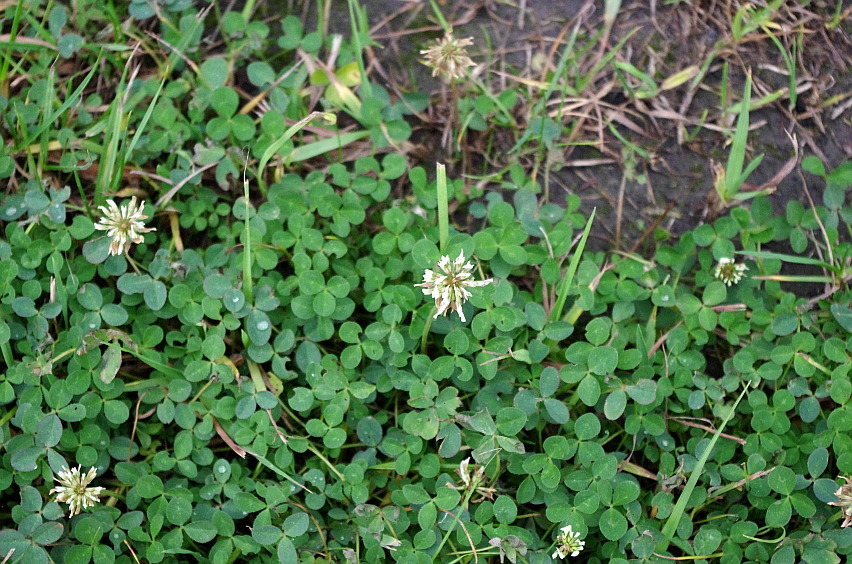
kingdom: Plantae
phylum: Tracheophyta
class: Magnoliopsida
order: Fabales
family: Fabaceae
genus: Trifolium
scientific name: Trifolium repens
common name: White clover
